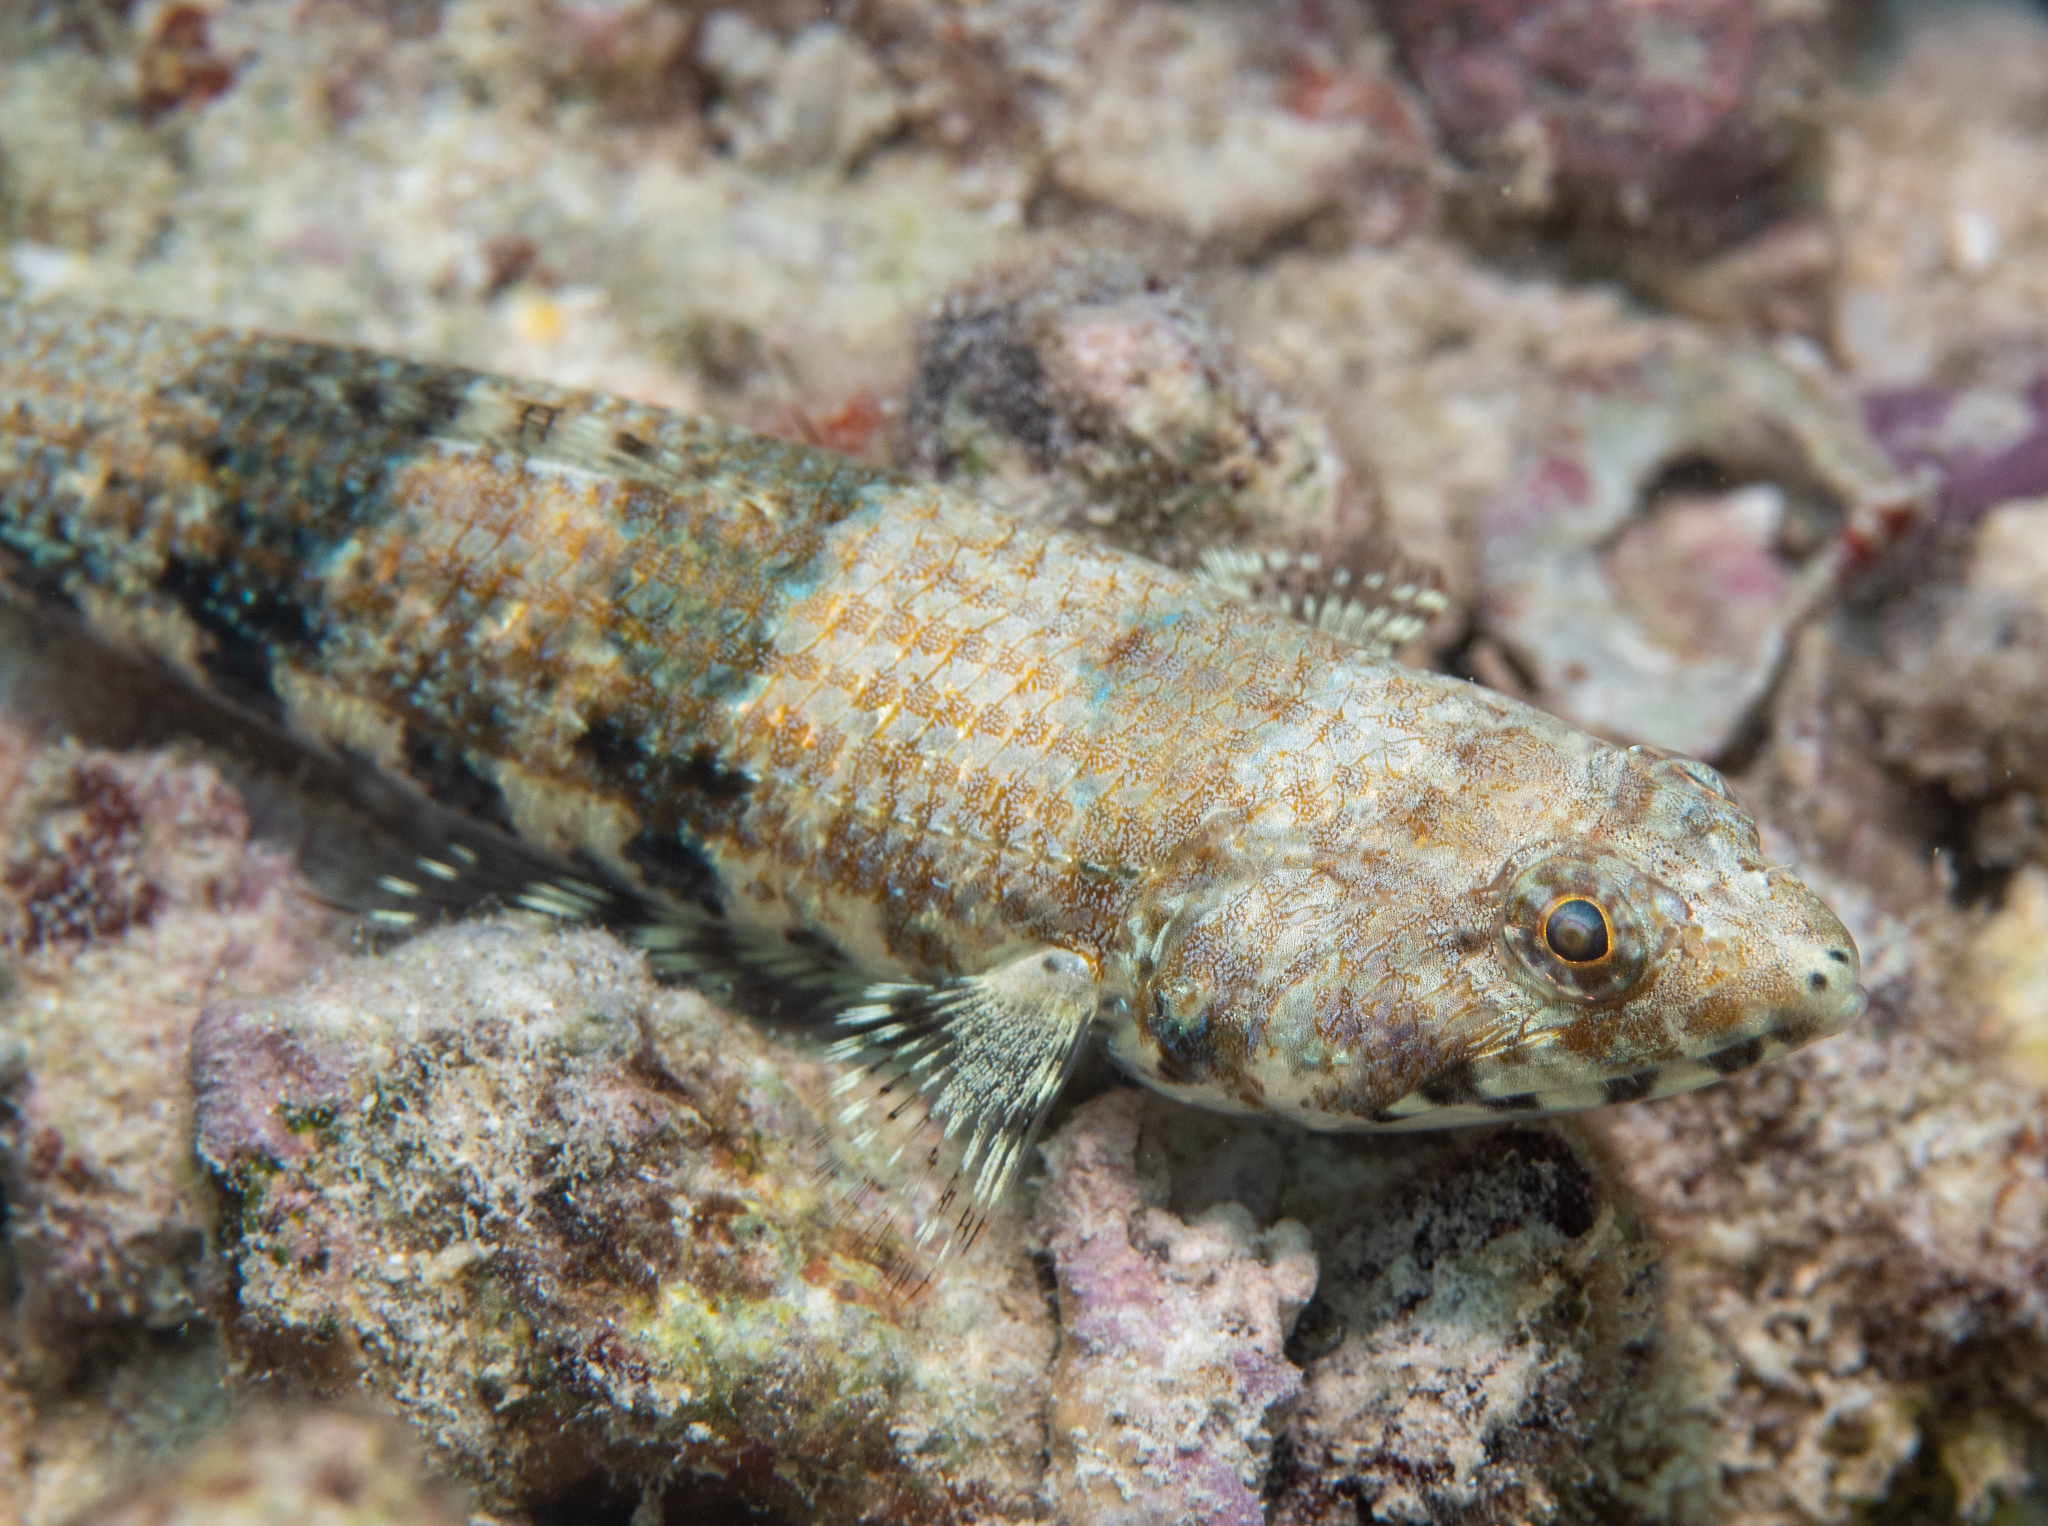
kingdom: Animalia
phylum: Chordata
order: Aulopiformes
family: Synodontidae
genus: Synodus
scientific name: Synodus binotatus
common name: Twospot lizardfish
